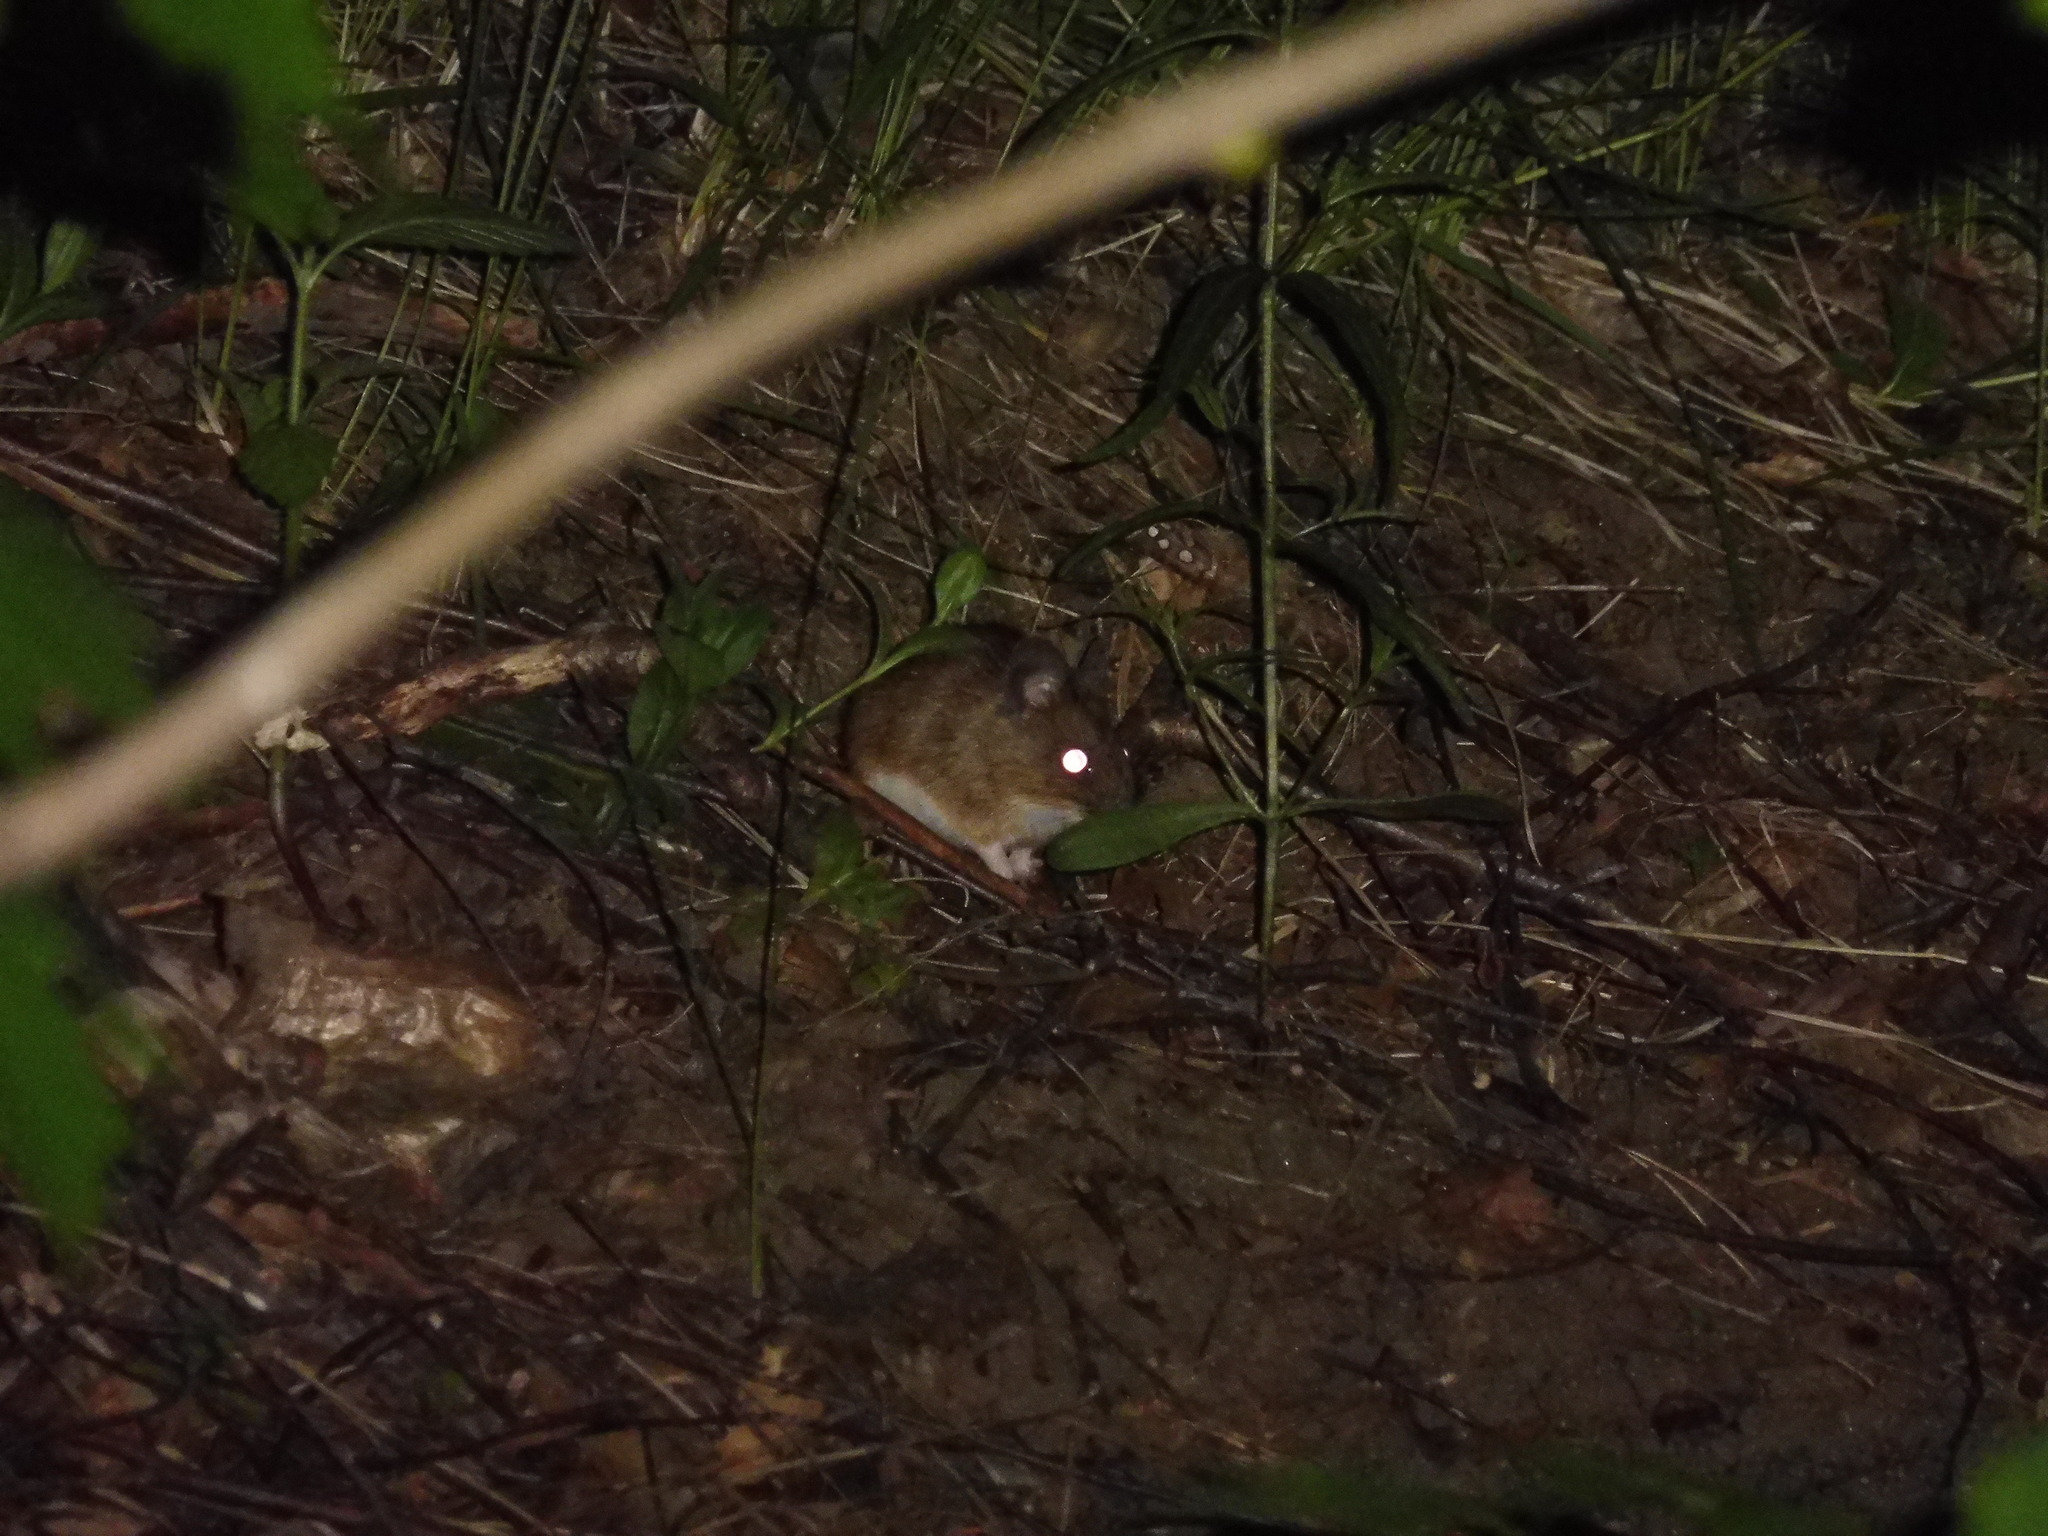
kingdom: Animalia
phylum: Chordata
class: Mammalia
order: Rodentia
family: Muridae
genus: Apodemus
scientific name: Apodemus flavicollis
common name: Yellow-necked field mouse
